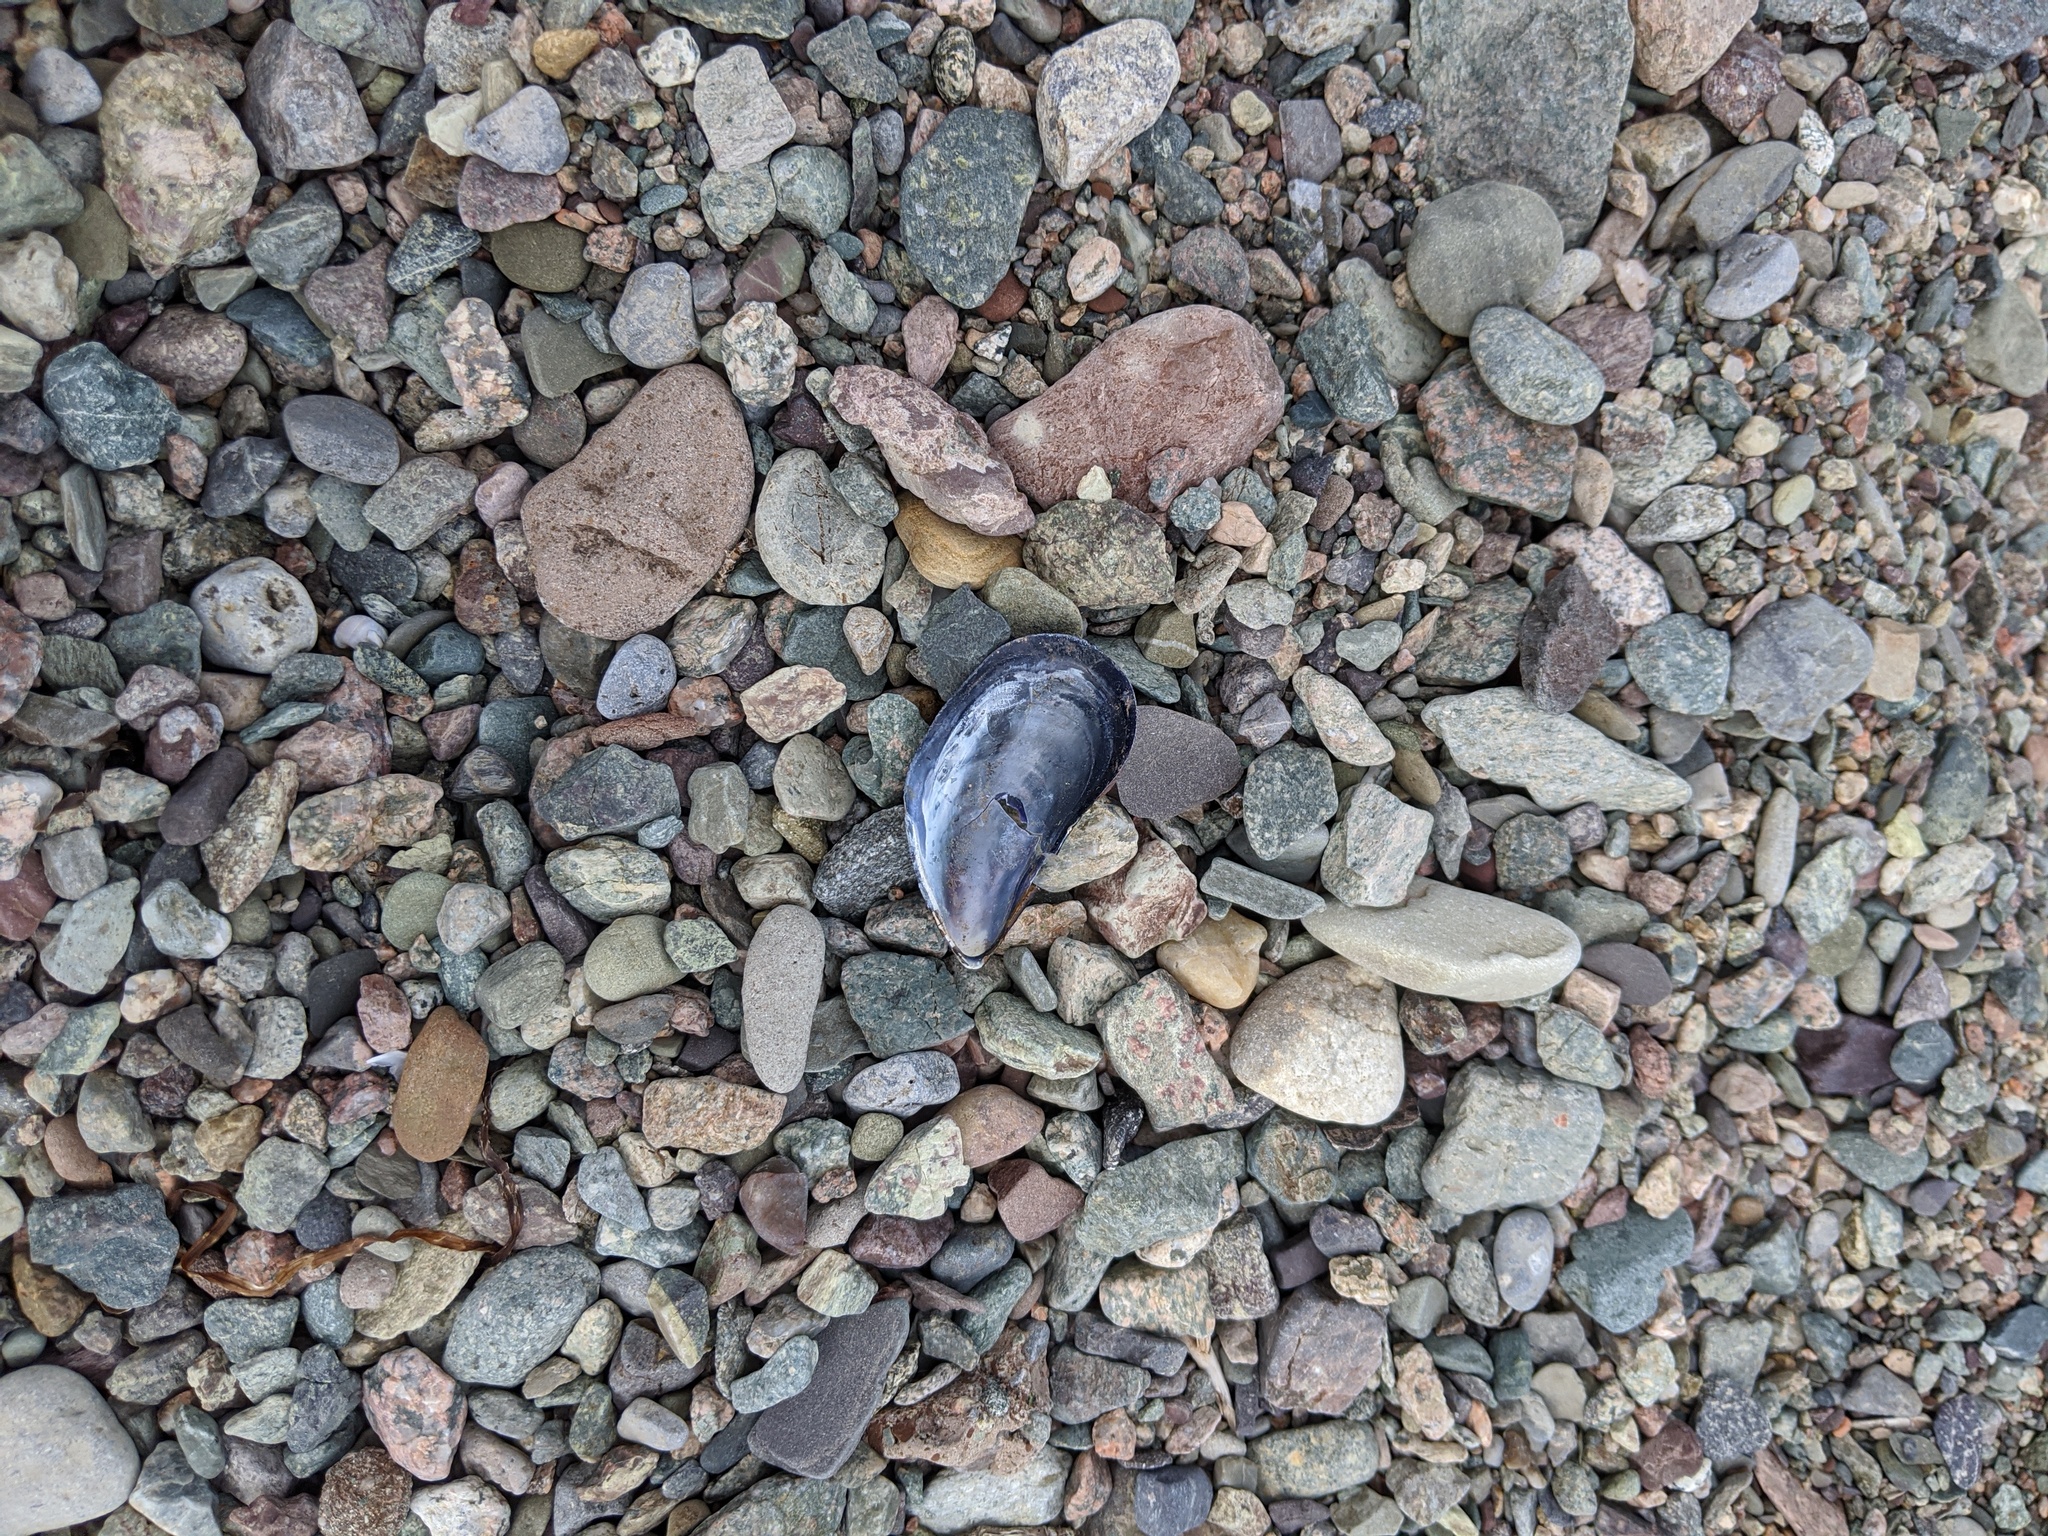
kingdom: Animalia
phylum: Mollusca
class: Bivalvia
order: Mytilida
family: Mytilidae
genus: Mytilus
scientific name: Mytilus
